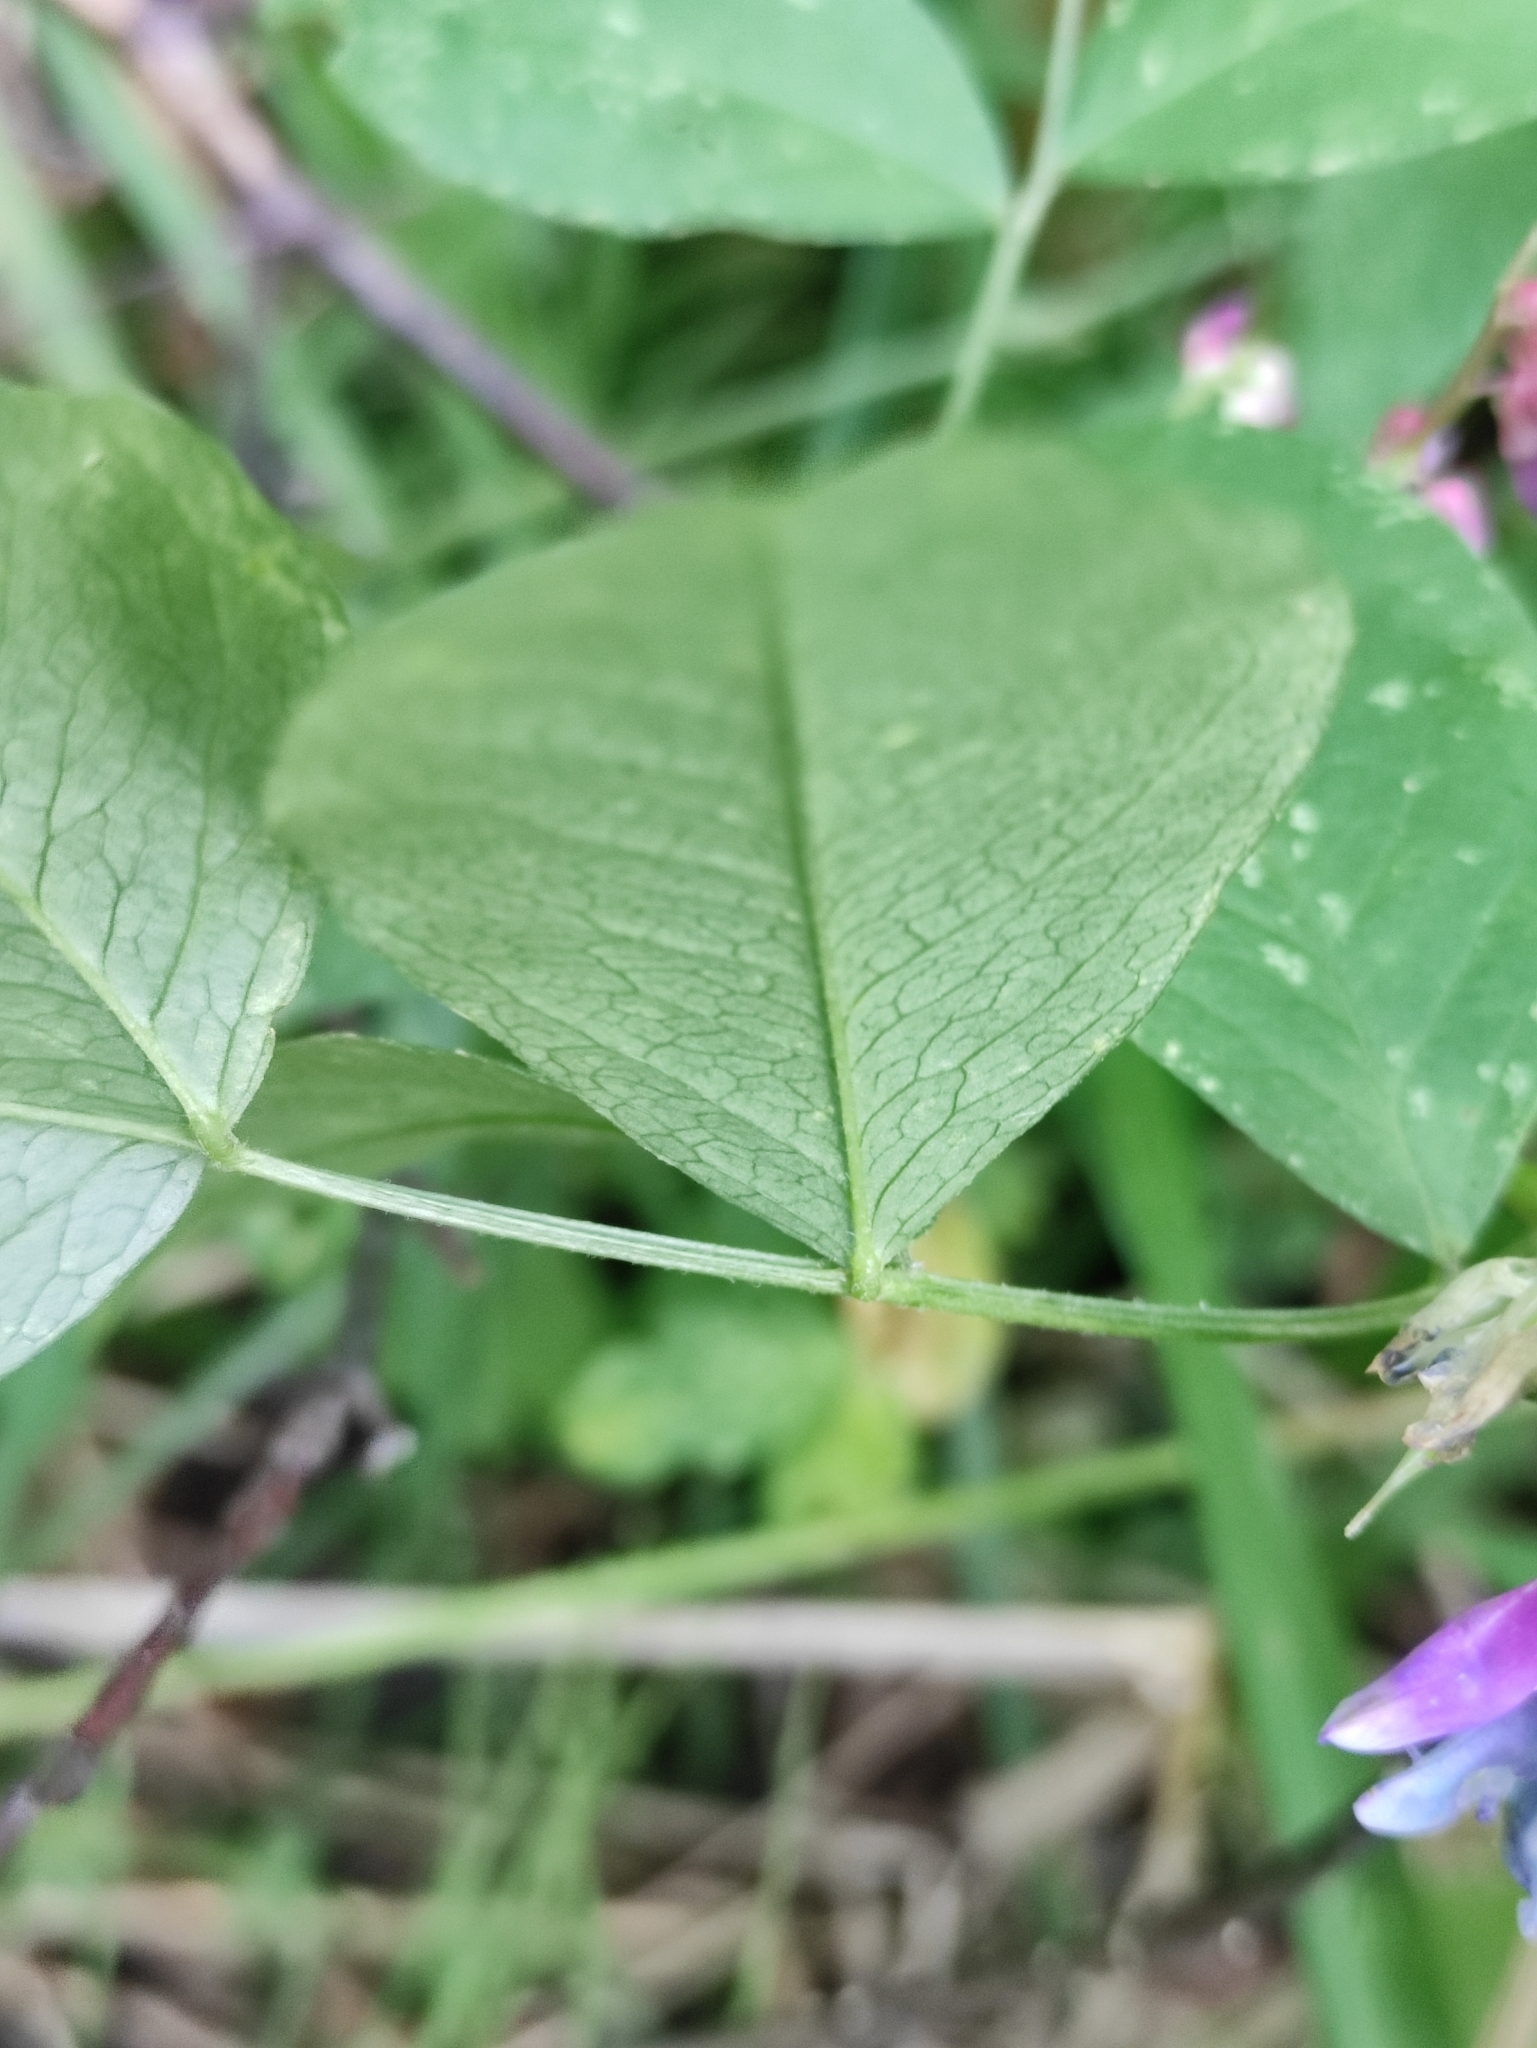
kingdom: Plantae
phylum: Tracheophyta
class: Magnoliopsida
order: Fabales
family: Fabaceae
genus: Vicia
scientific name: Vicia ramuliflora
